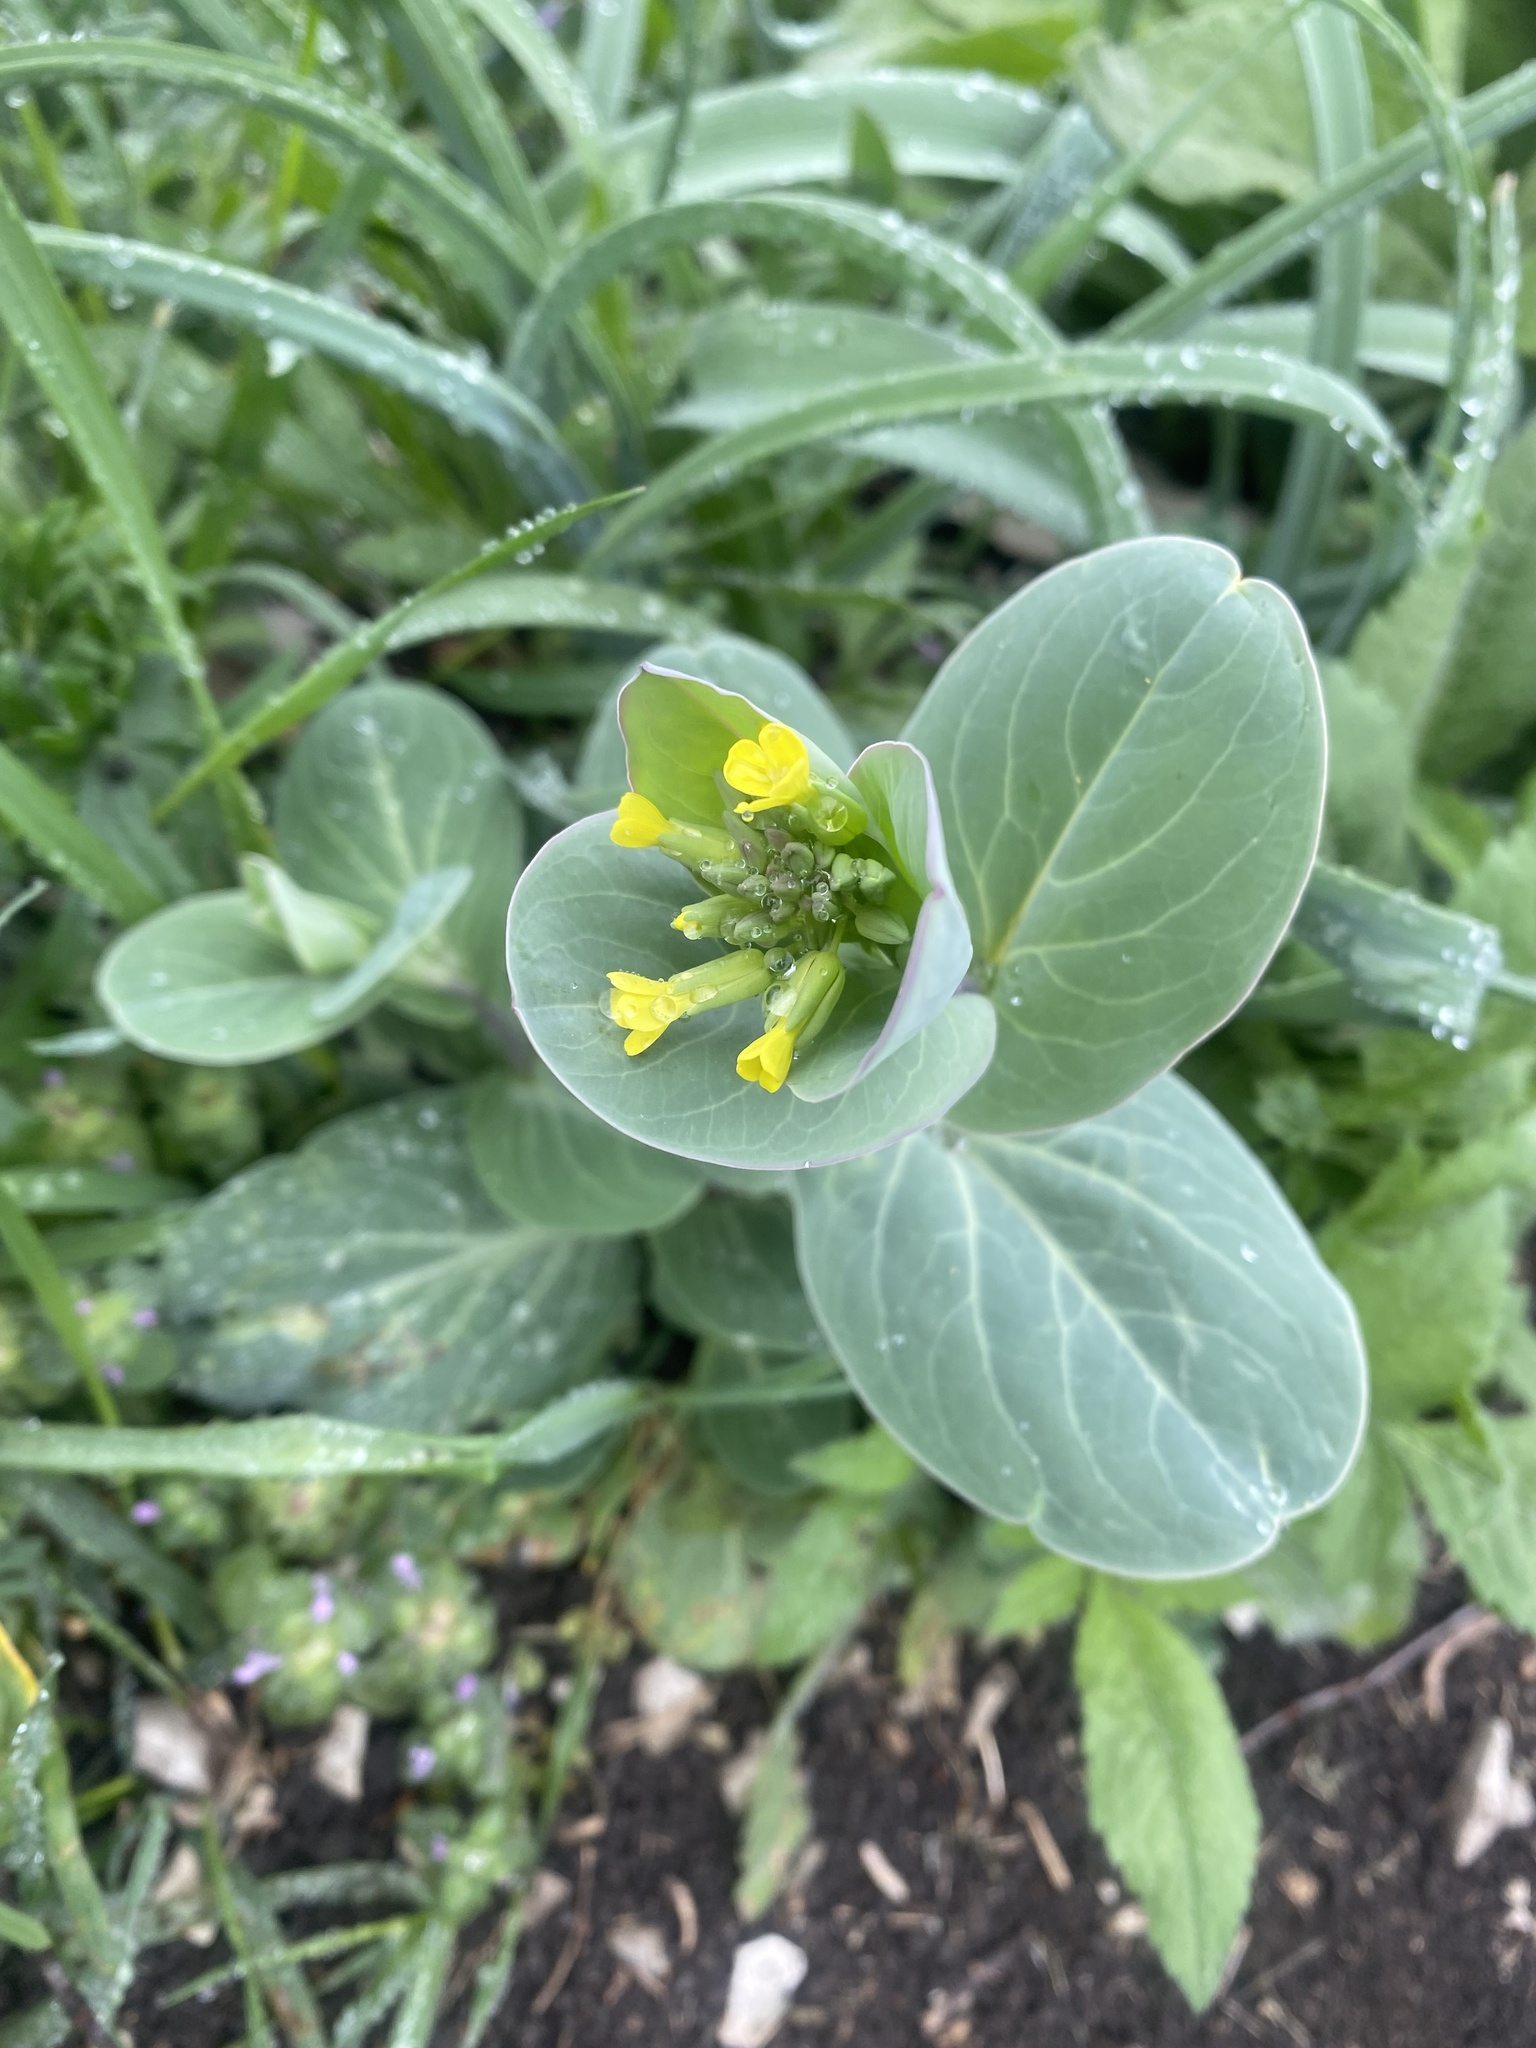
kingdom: Plantae
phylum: Tracheophyta
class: Magnoliopsida
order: Brassicales
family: Brassicaceae
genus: Conringia
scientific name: Conringia austriaca
